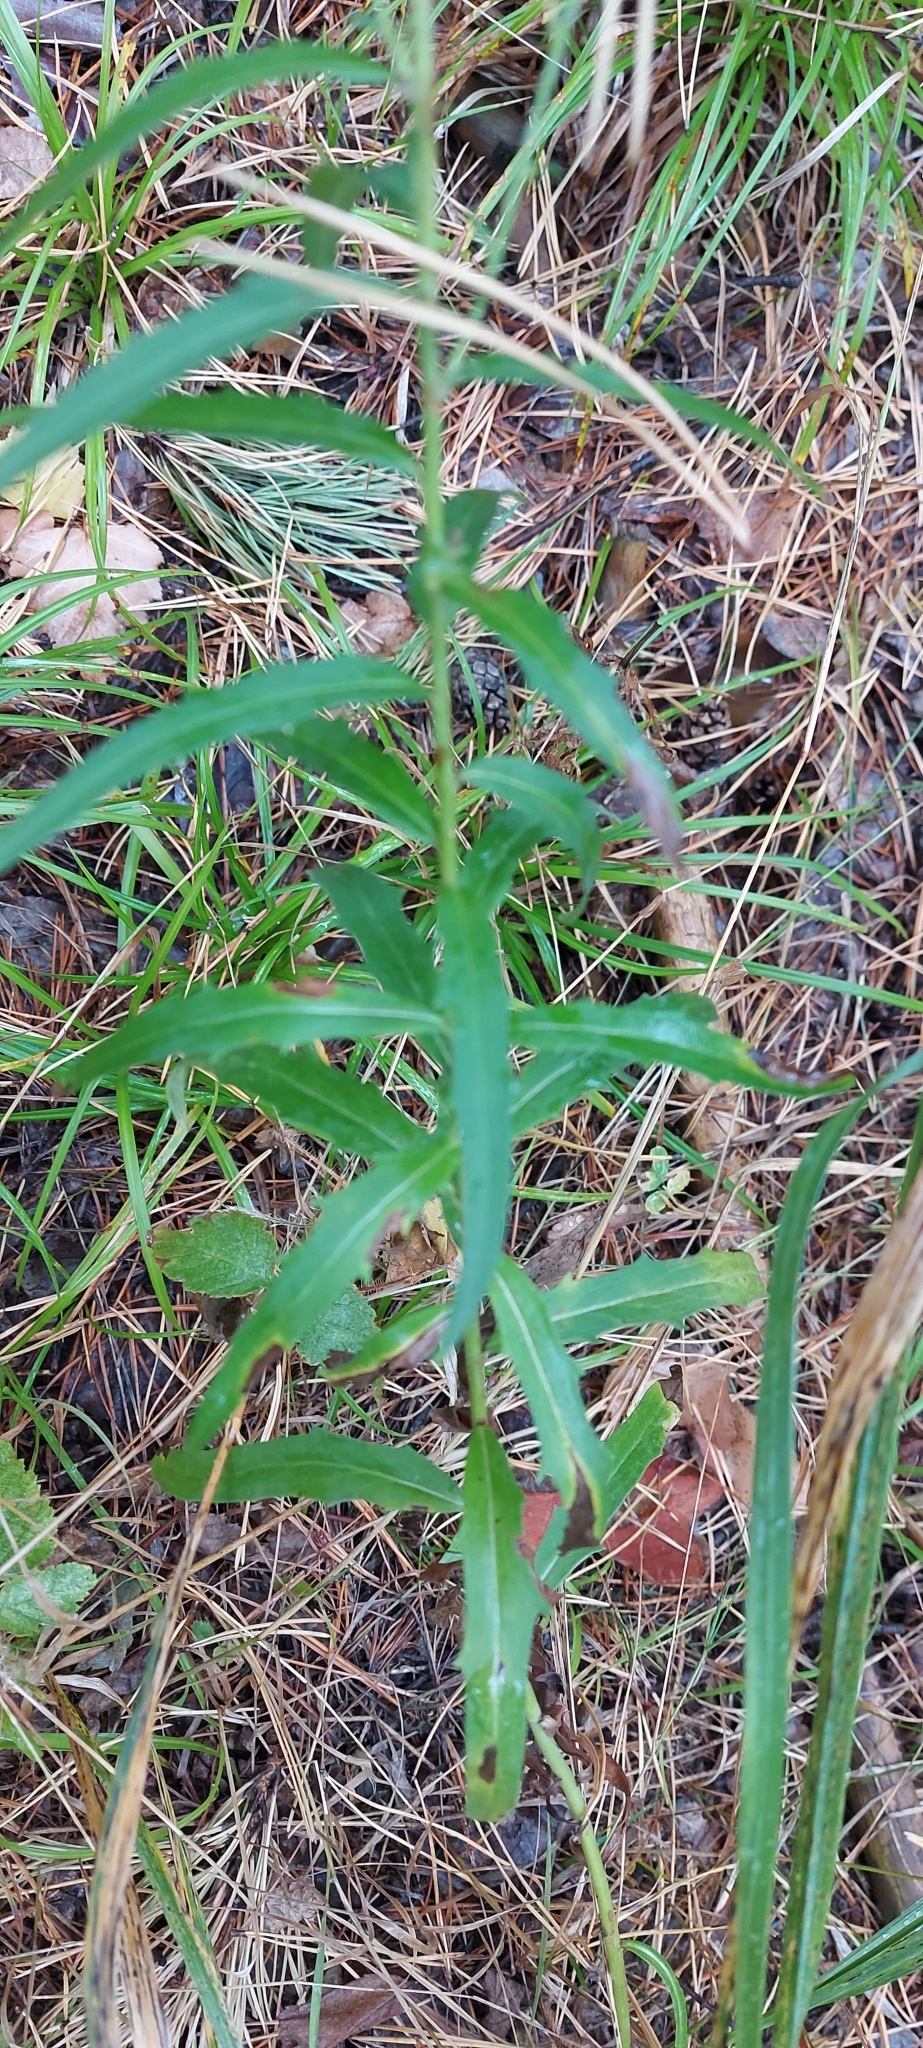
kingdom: Plantae
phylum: Tracheophyta
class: Magnoliopsida
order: Asterales
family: Asteraceae
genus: Hieracium
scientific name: Hieracium umbellatum
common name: Northern hawkweed
